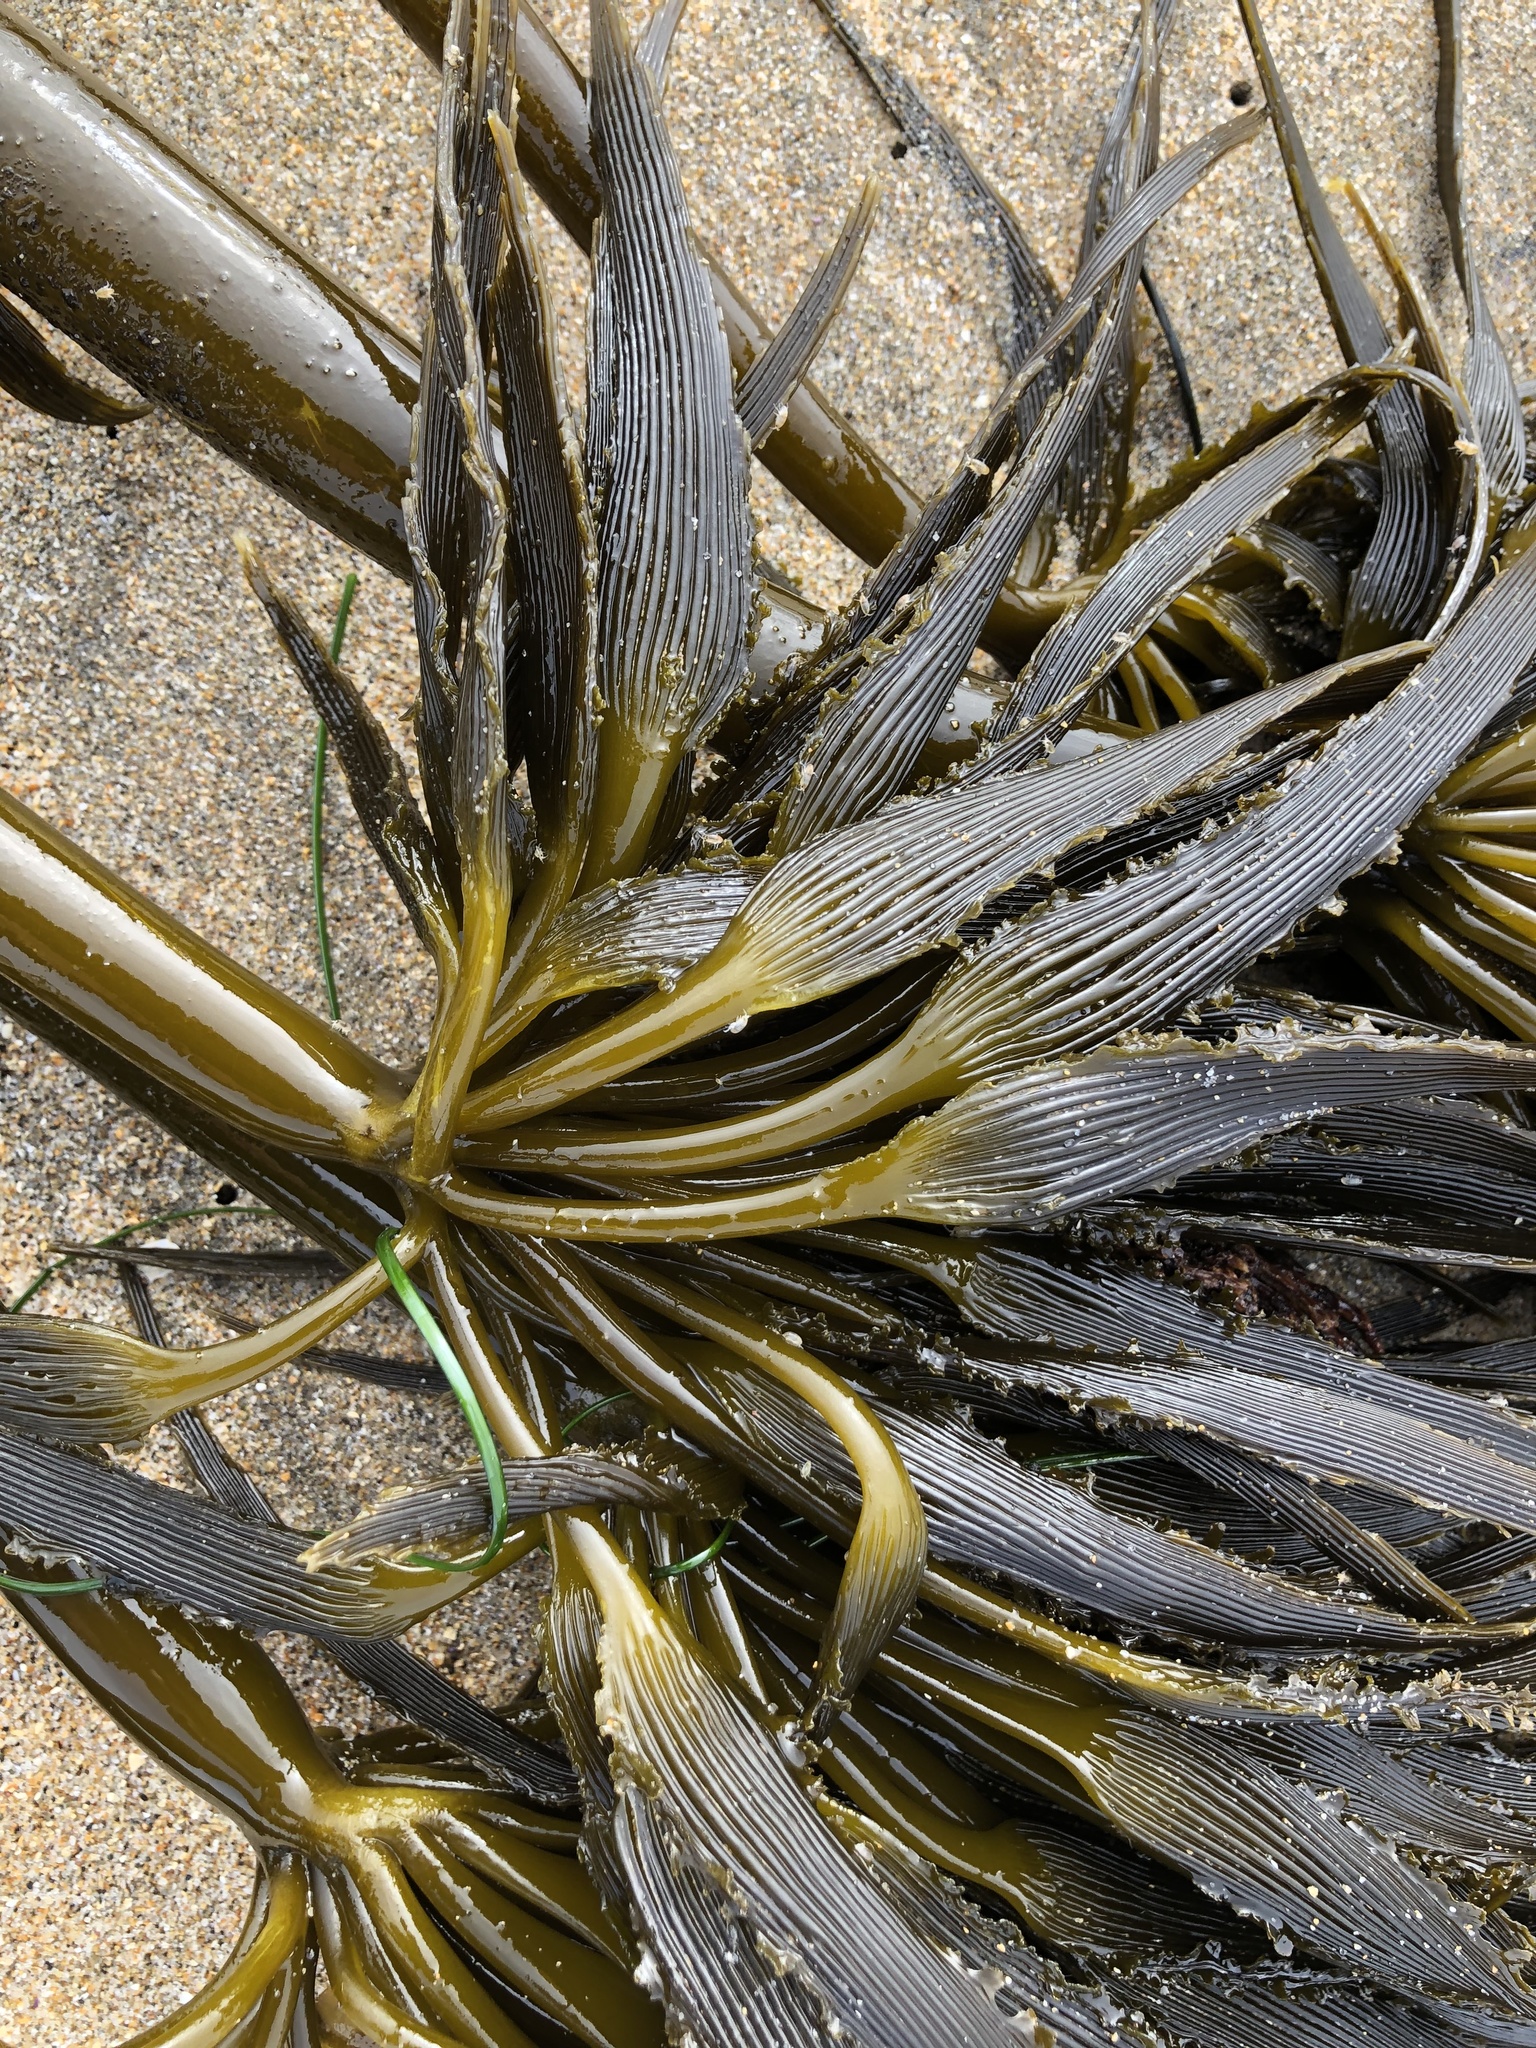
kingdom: Chromista
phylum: Ochrophyta
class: Phaeophyceae
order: Laminariales
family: Laminariaceae
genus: Postelsia
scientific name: Postelsia palmiformis
